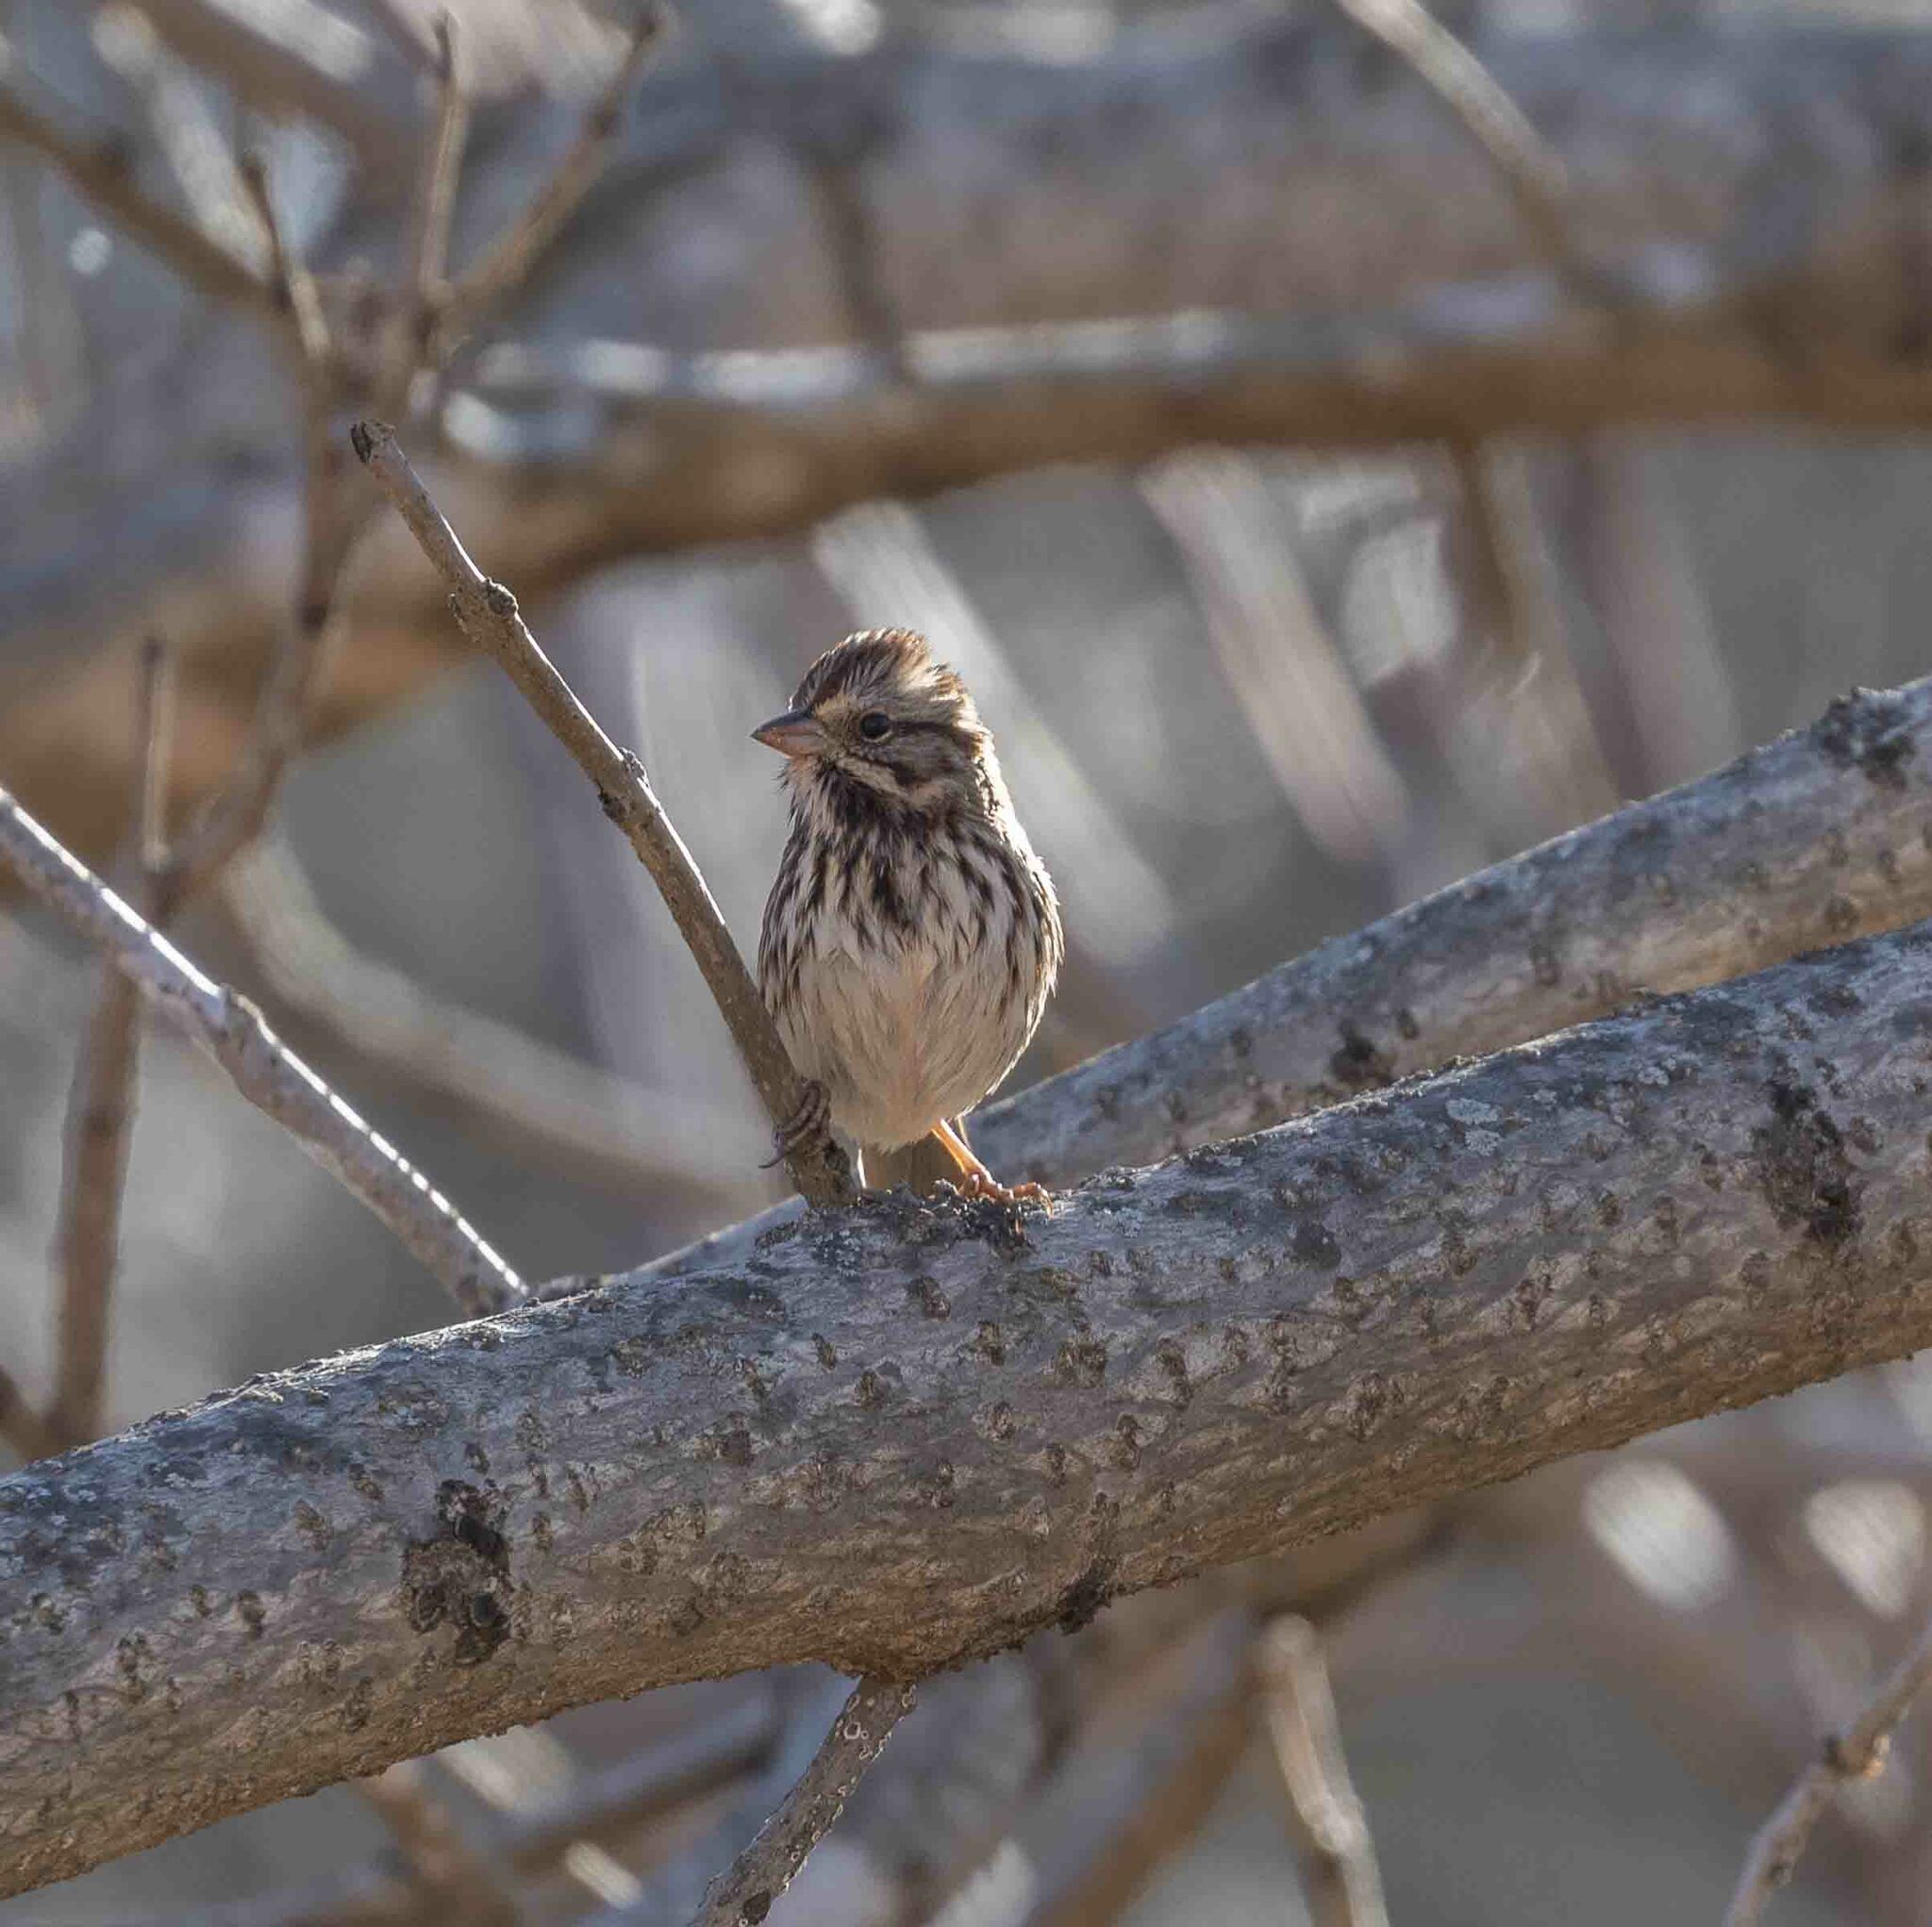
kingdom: Animalia
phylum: Chordata
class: Aves
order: Passeriformes
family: Passerellidae
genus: Melospiza
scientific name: Melospiza melodia
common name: Song sparrow
